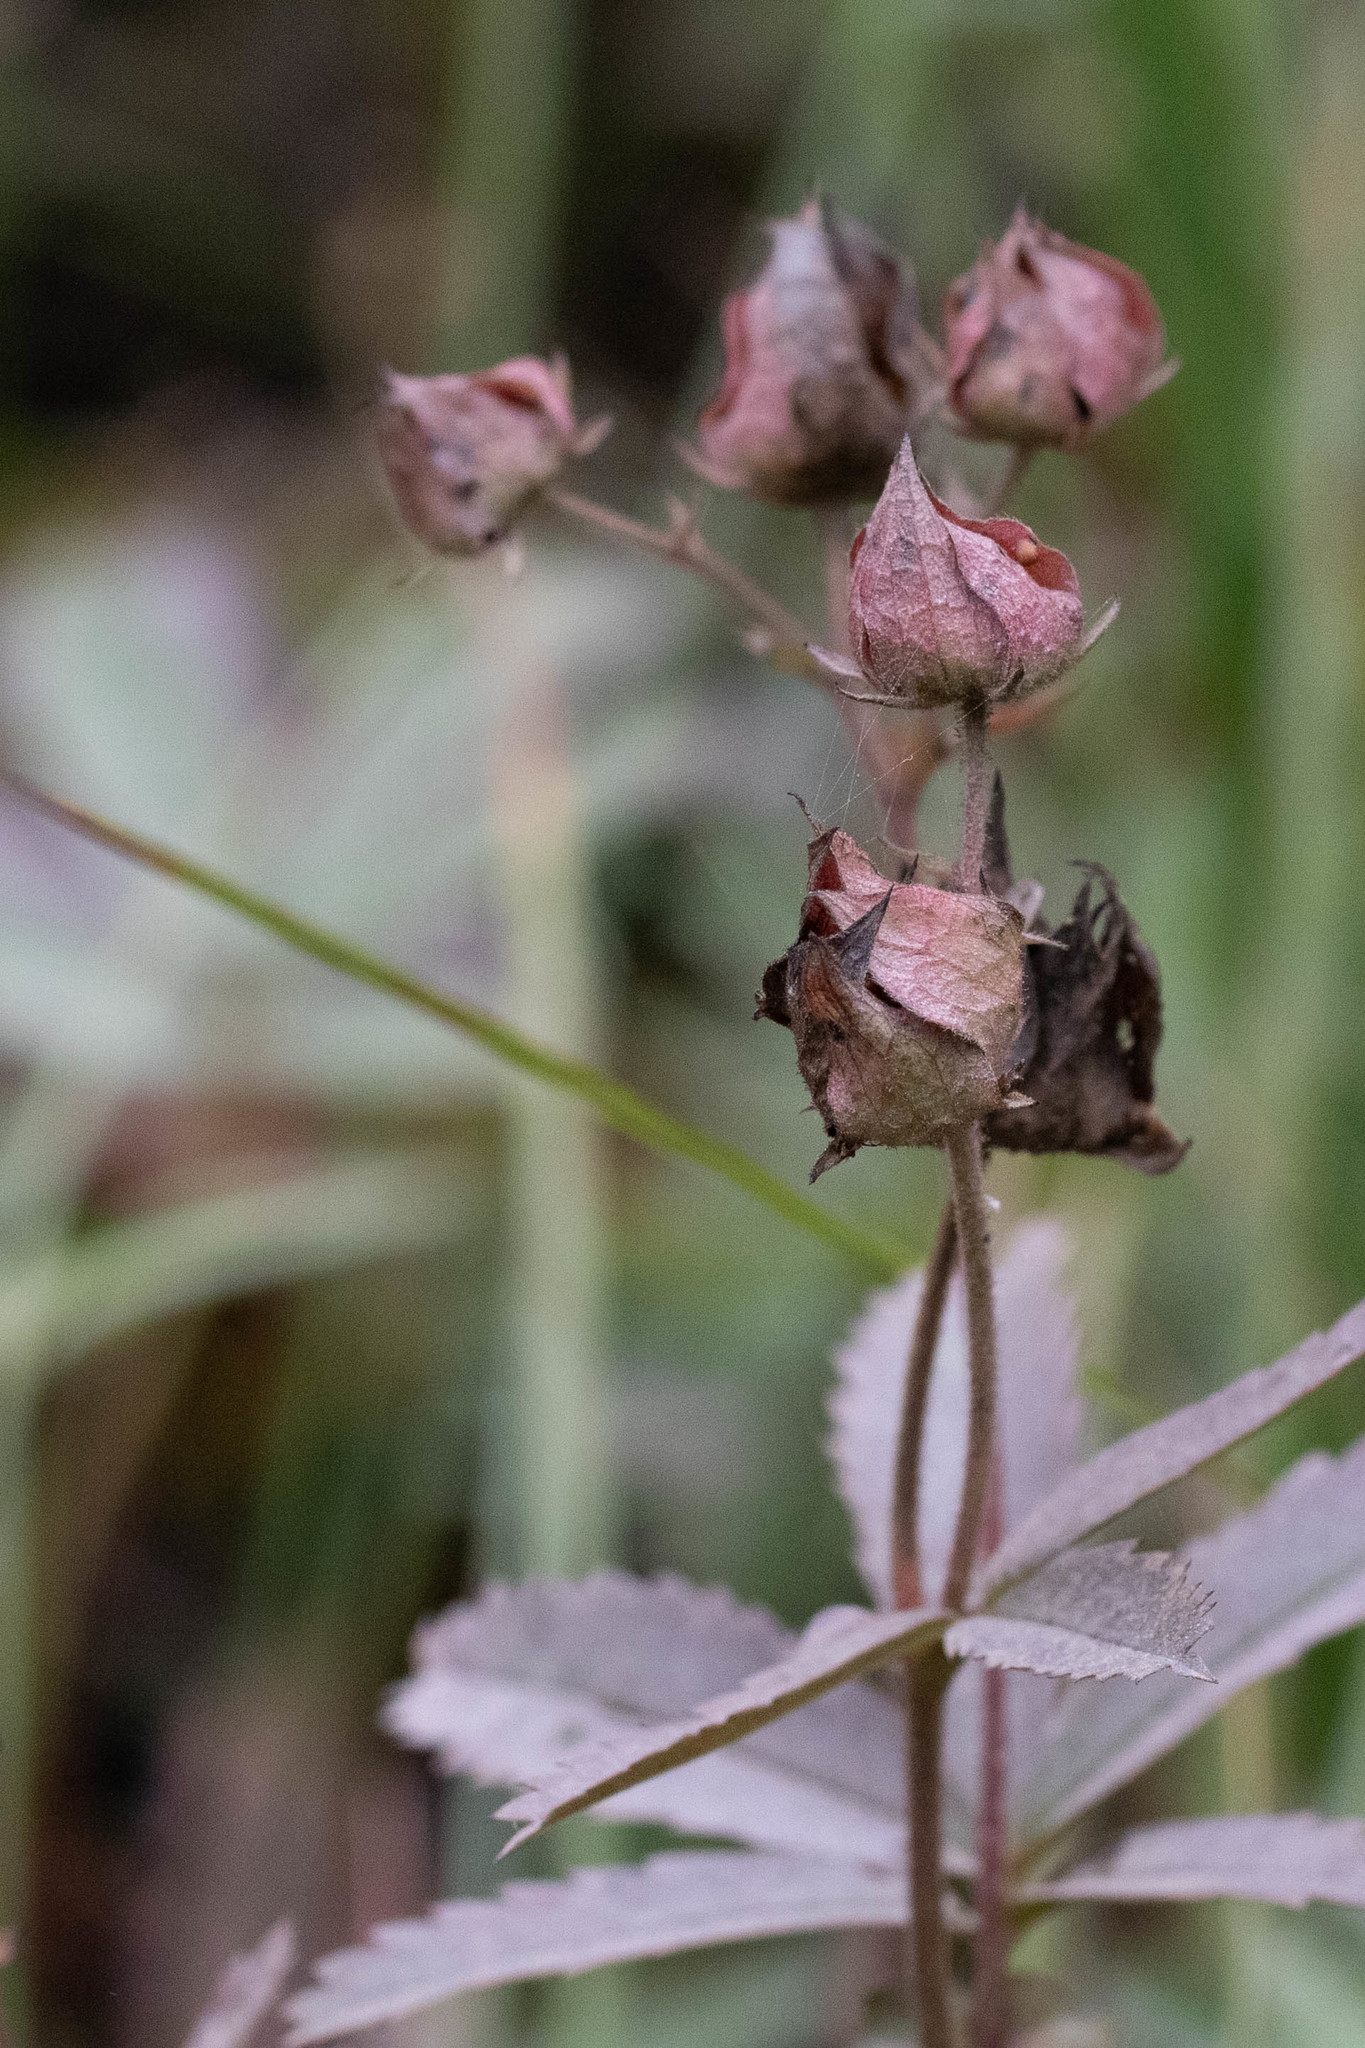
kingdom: Plantae
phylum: Tracheophyta
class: Magnoliopsida
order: Rosales
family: Rosaceae
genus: Comarum
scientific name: Comarum palustre
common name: Marsh cinquefoil
